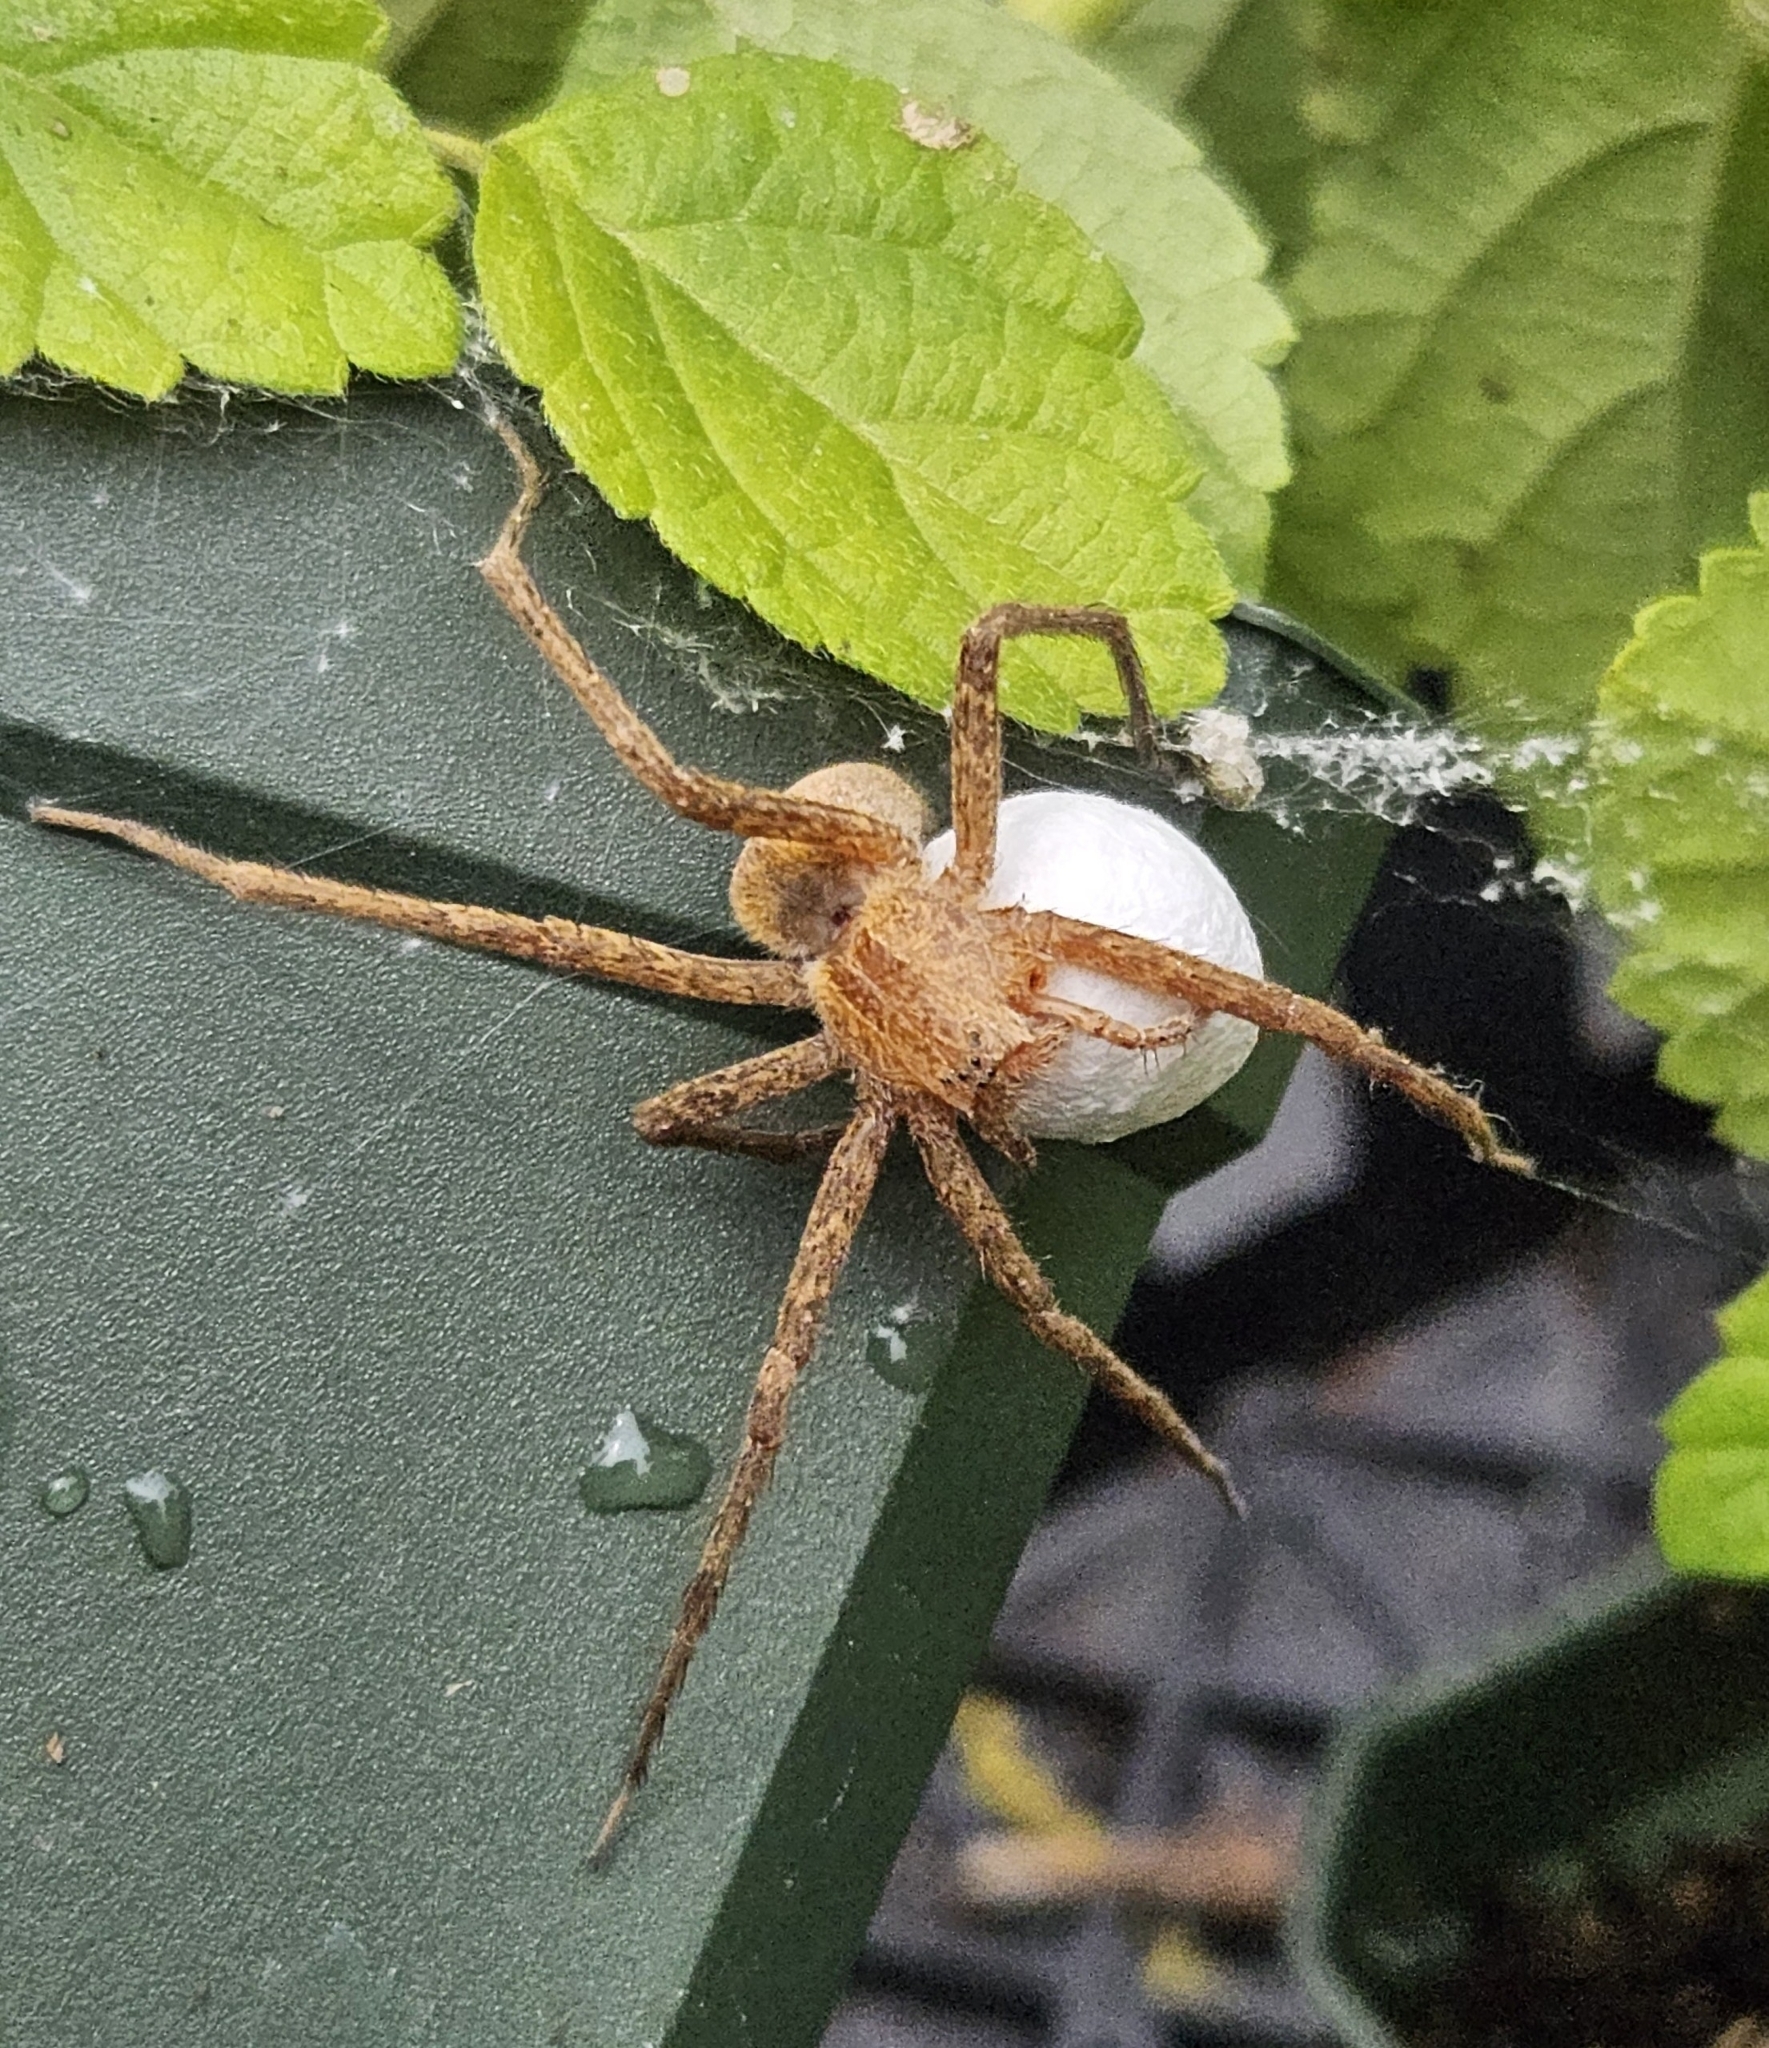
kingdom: Animalia
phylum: Arthropoda
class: Arachnida
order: Araneae
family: Pisauridae
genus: Pisaurina
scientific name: Pisaurina mira
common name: American nursery web spider
